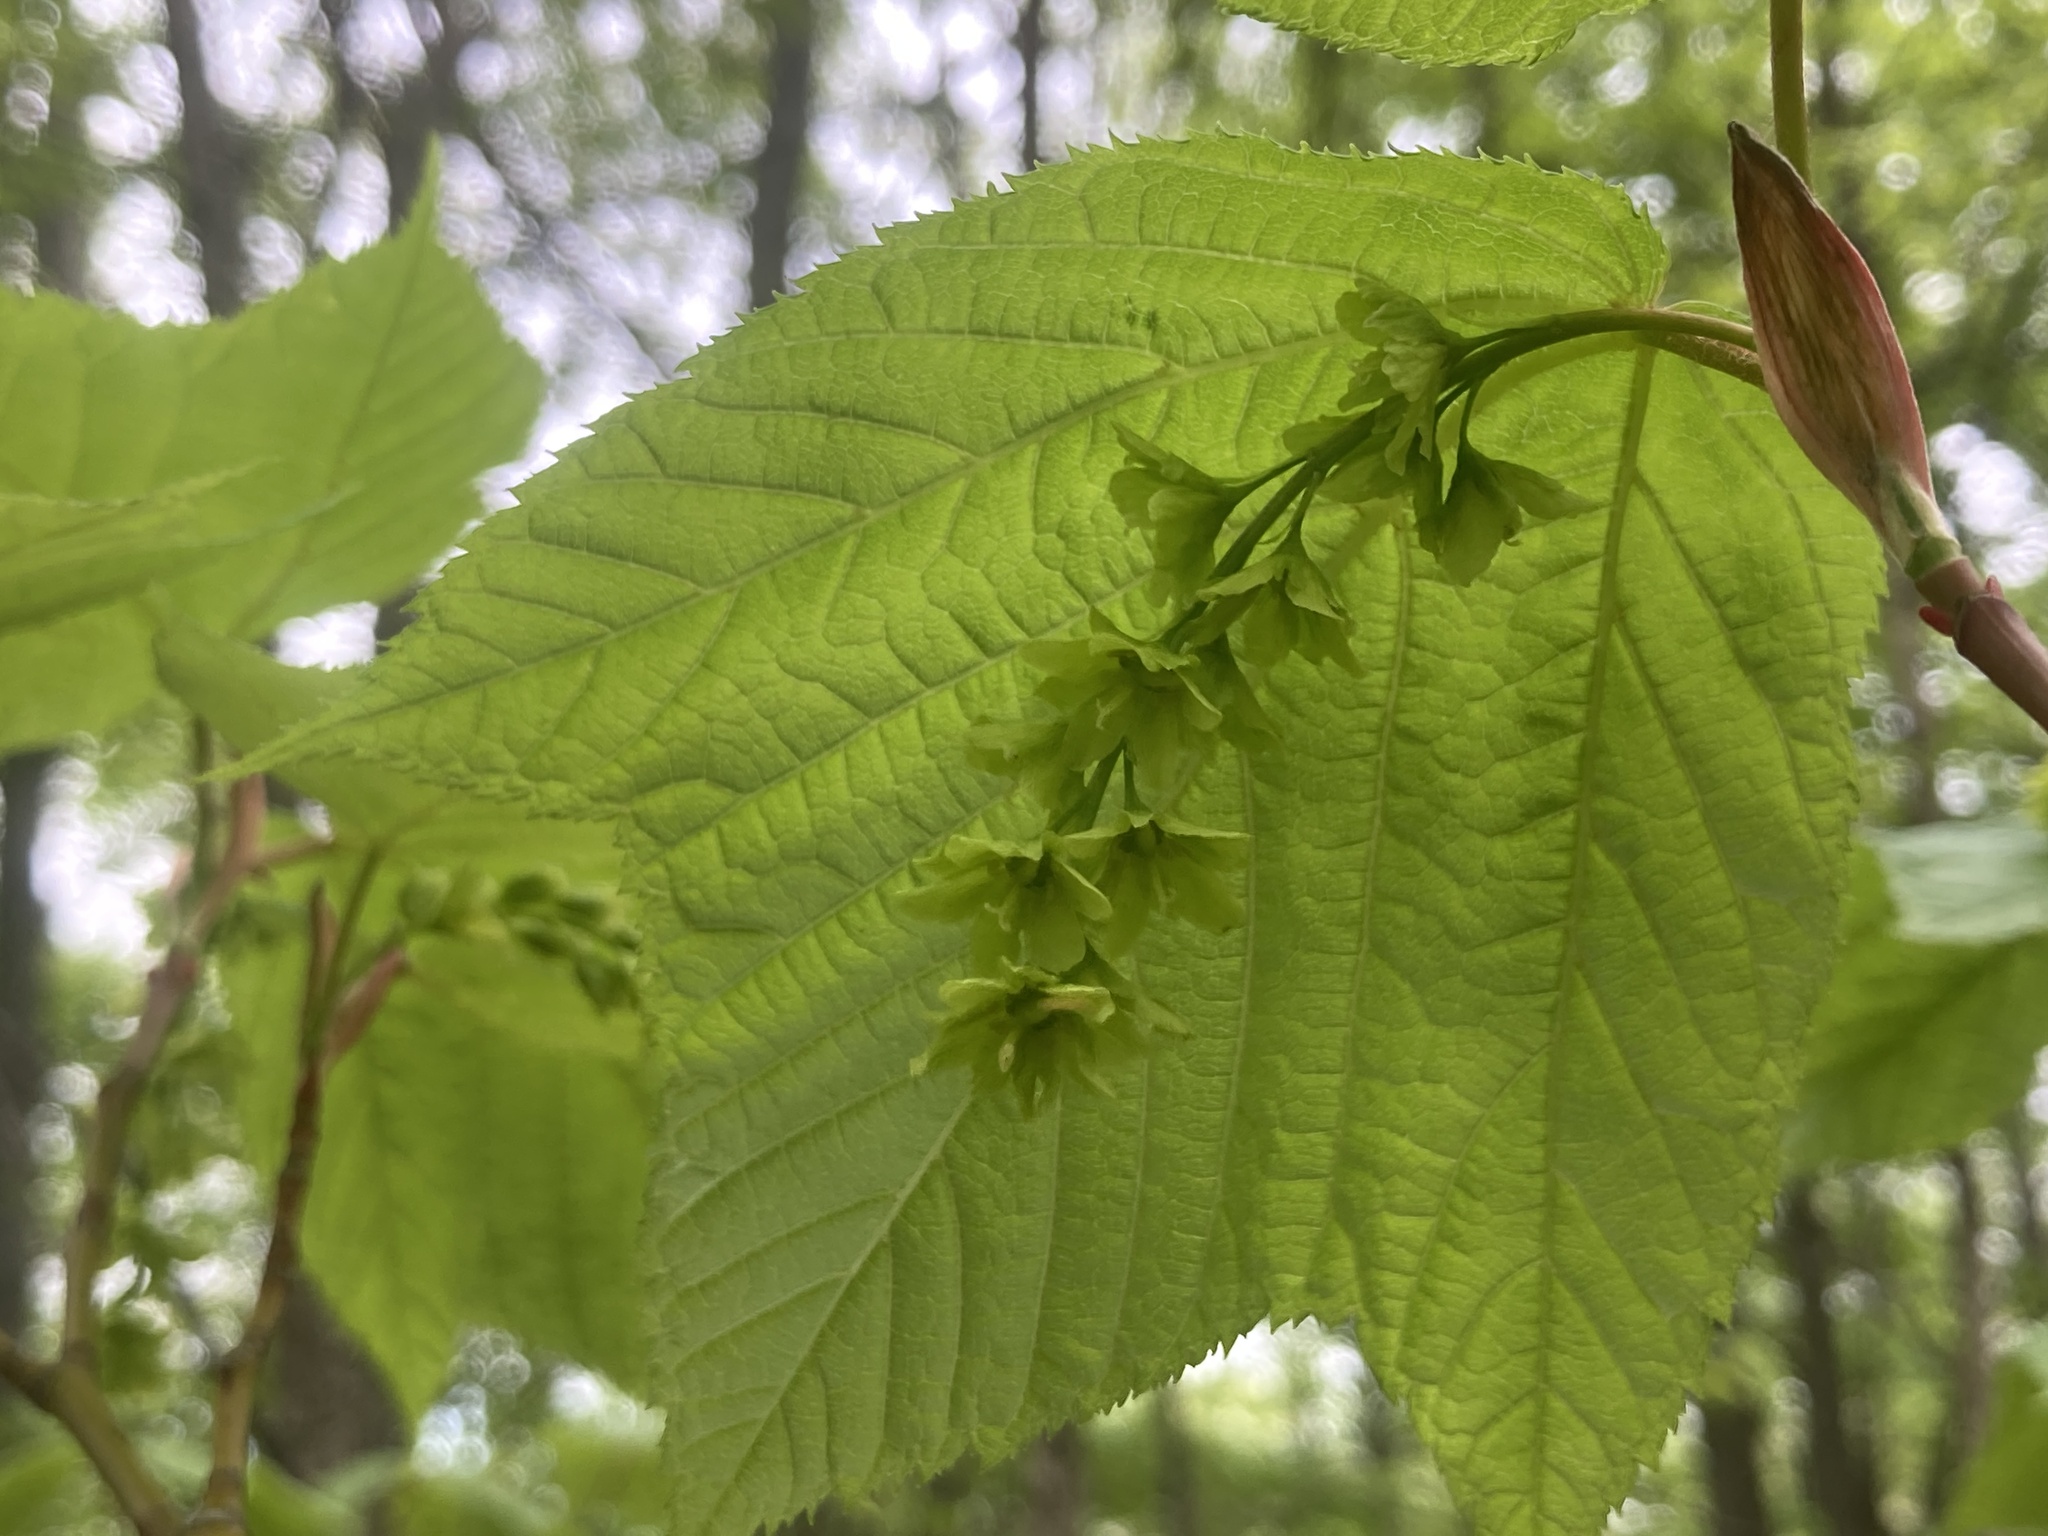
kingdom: Plantae
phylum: Tracheophyta
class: Magnoliopsida
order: Sapindales
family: Sapindaceae
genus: Acer
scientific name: Acer pensylvanicum
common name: Moosewood
